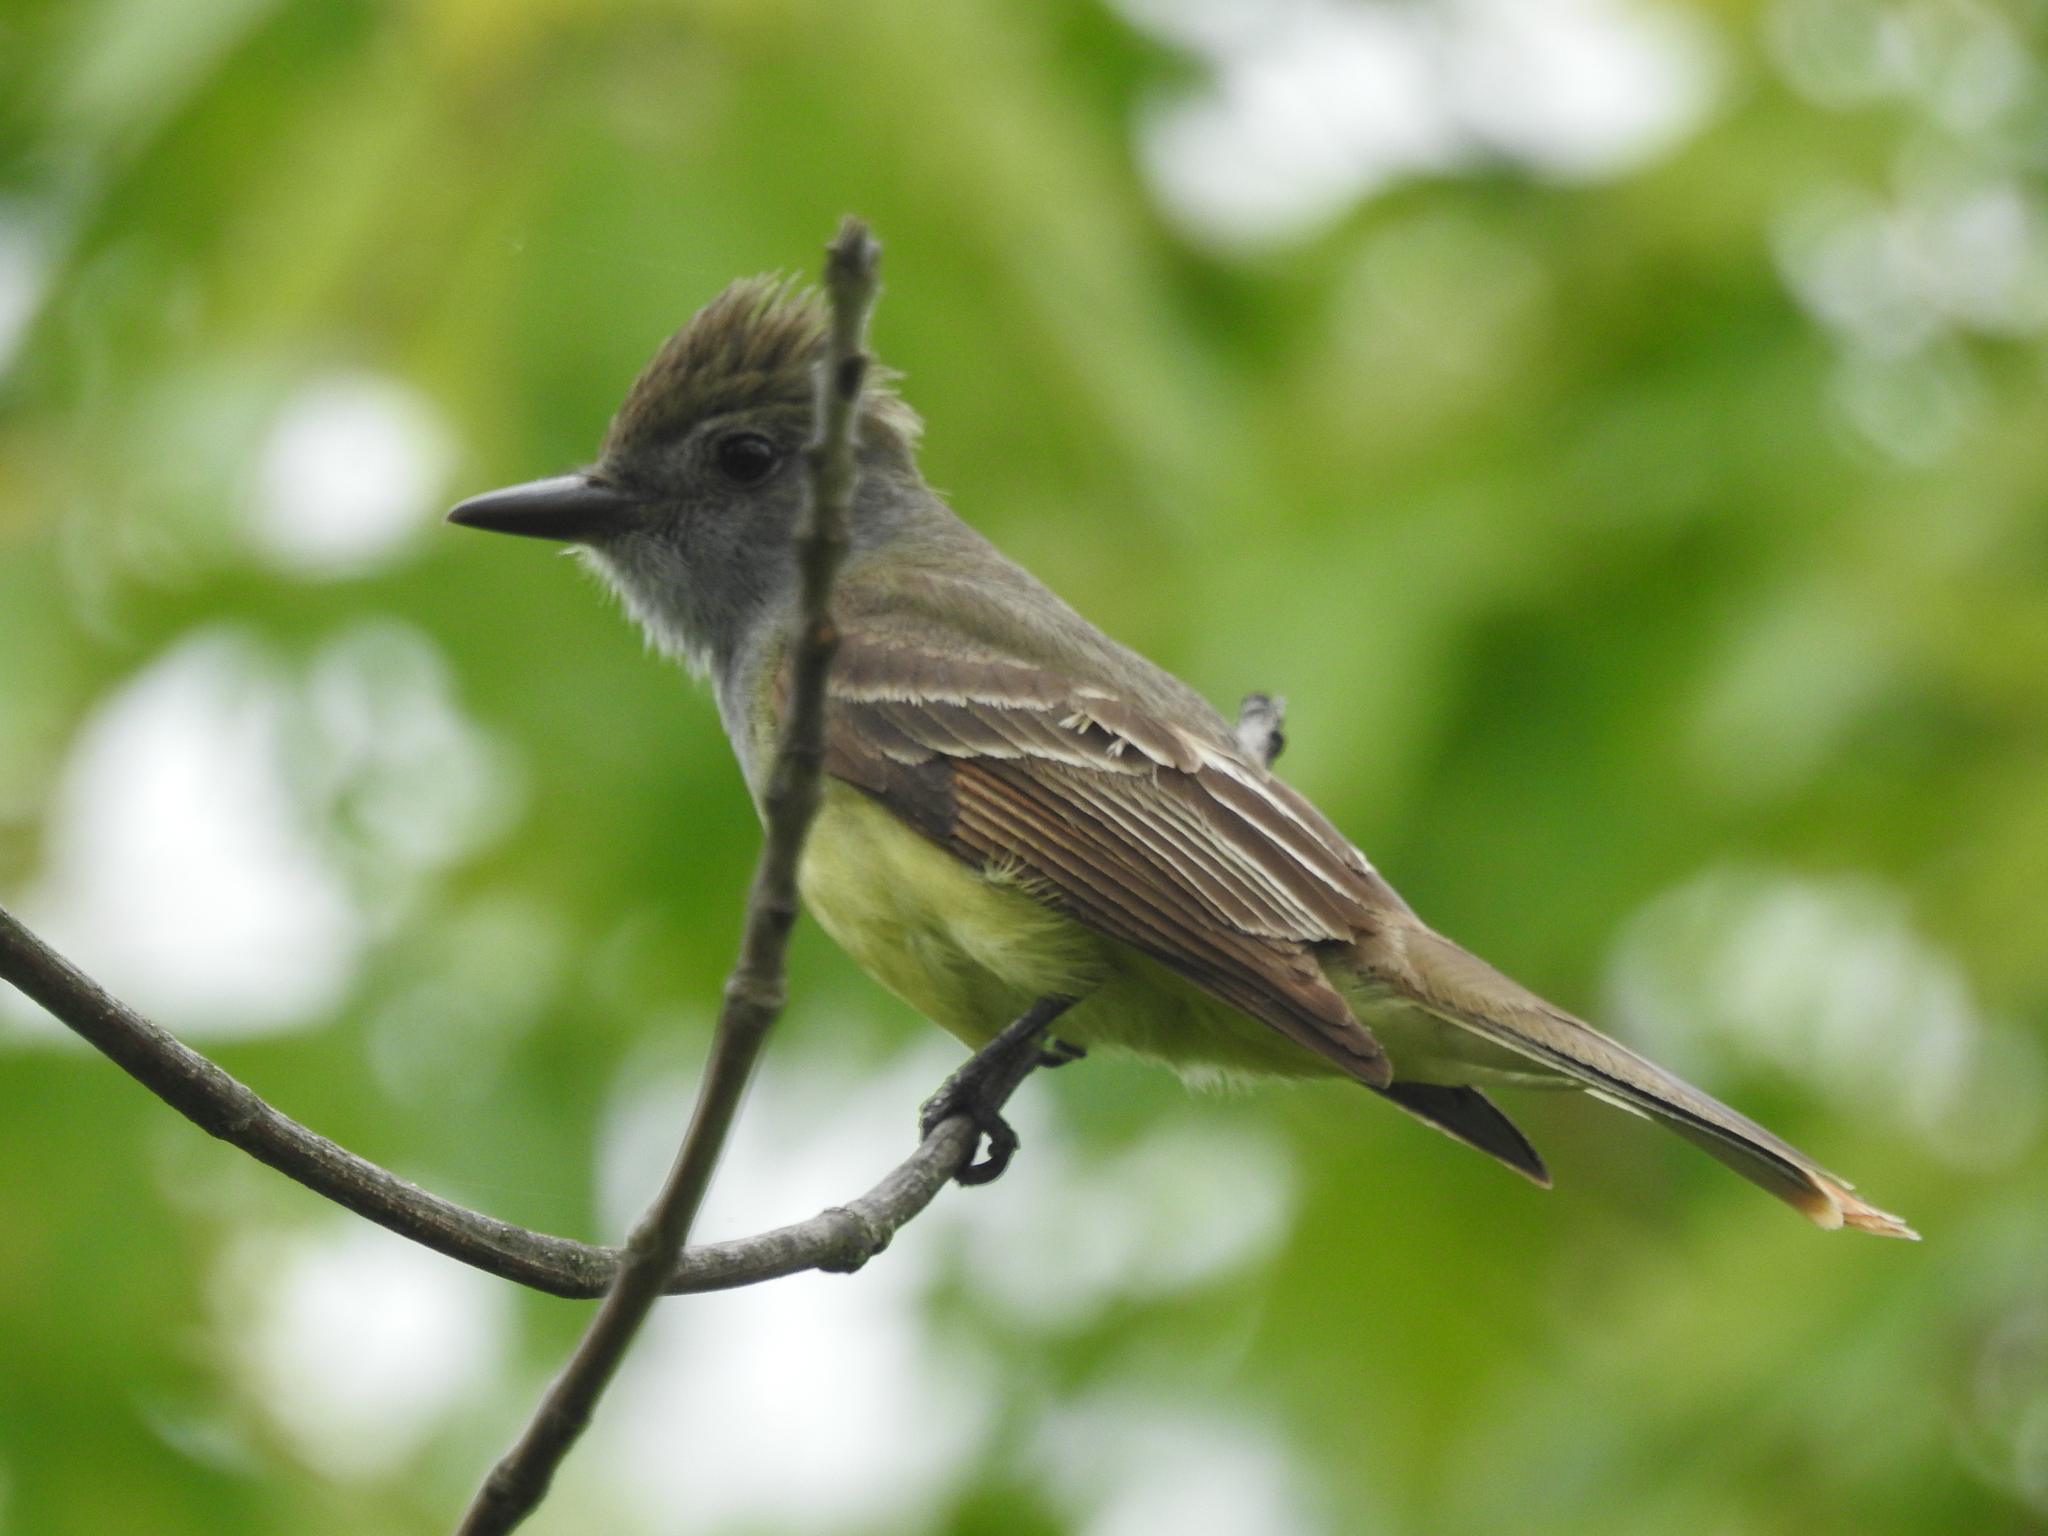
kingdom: Animalia
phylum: Chordata
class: Aves
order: Passeriformes
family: Tyrannidae
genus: Myiarchus
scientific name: Myiarchus crinitus
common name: Great crested flycatcher
